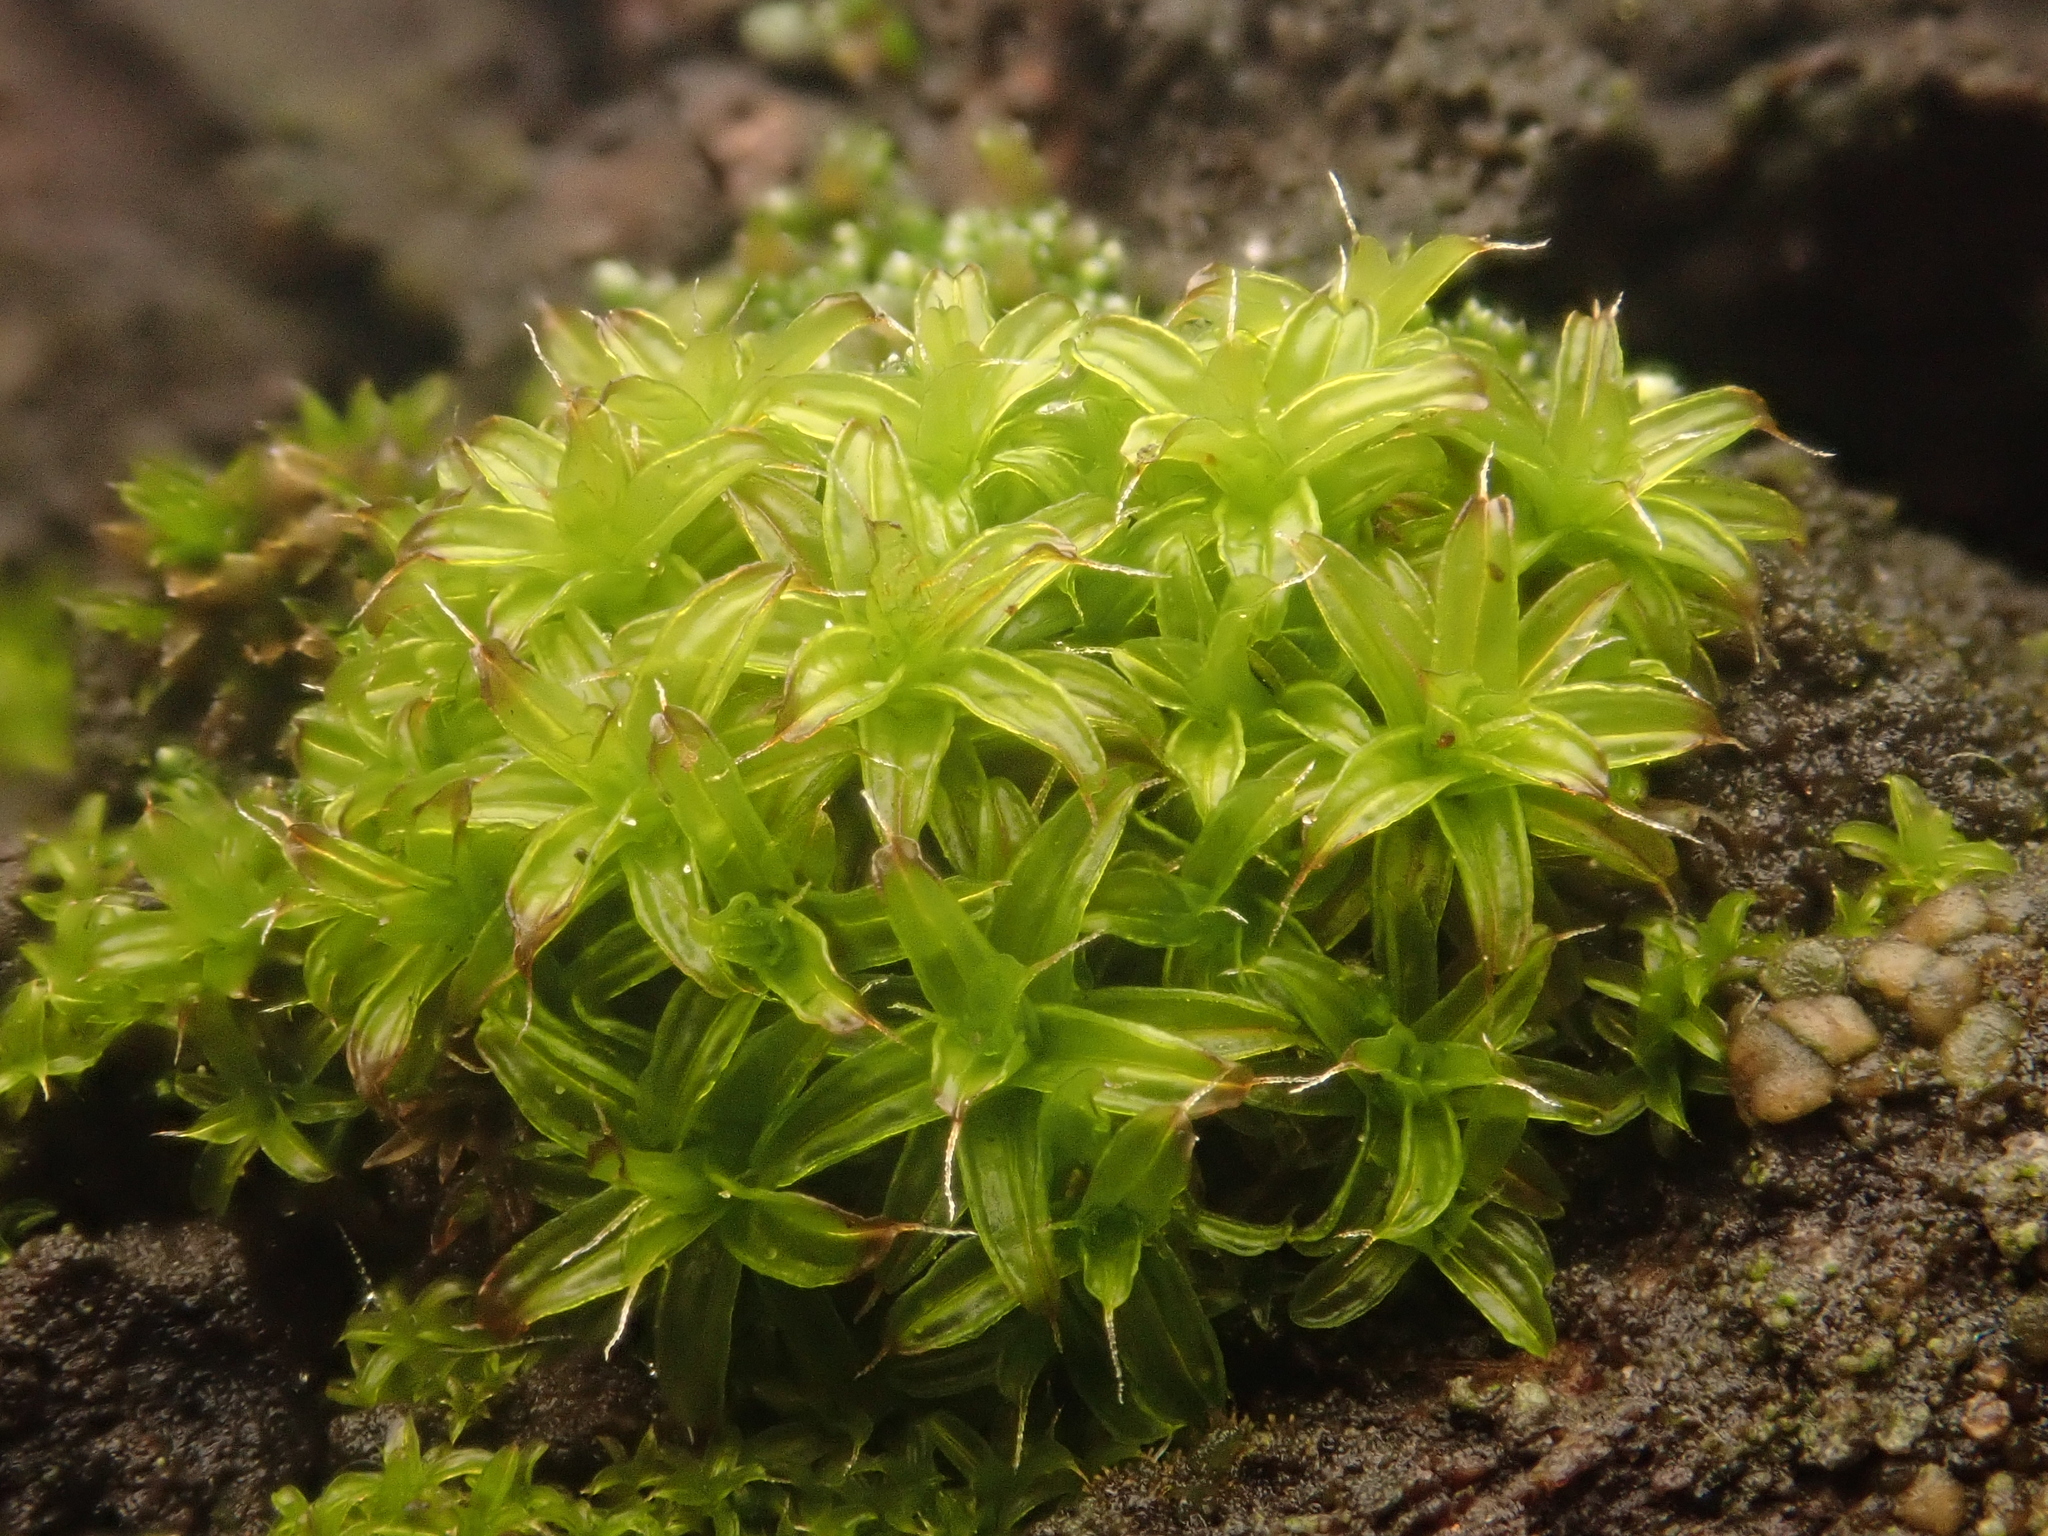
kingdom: Plantae
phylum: Bryophyta
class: Bryopsida
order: Pottiales
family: Pottiaceae
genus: Syntrichia
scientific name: Syntrichia ruralis
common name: Sidewalk screw moss
